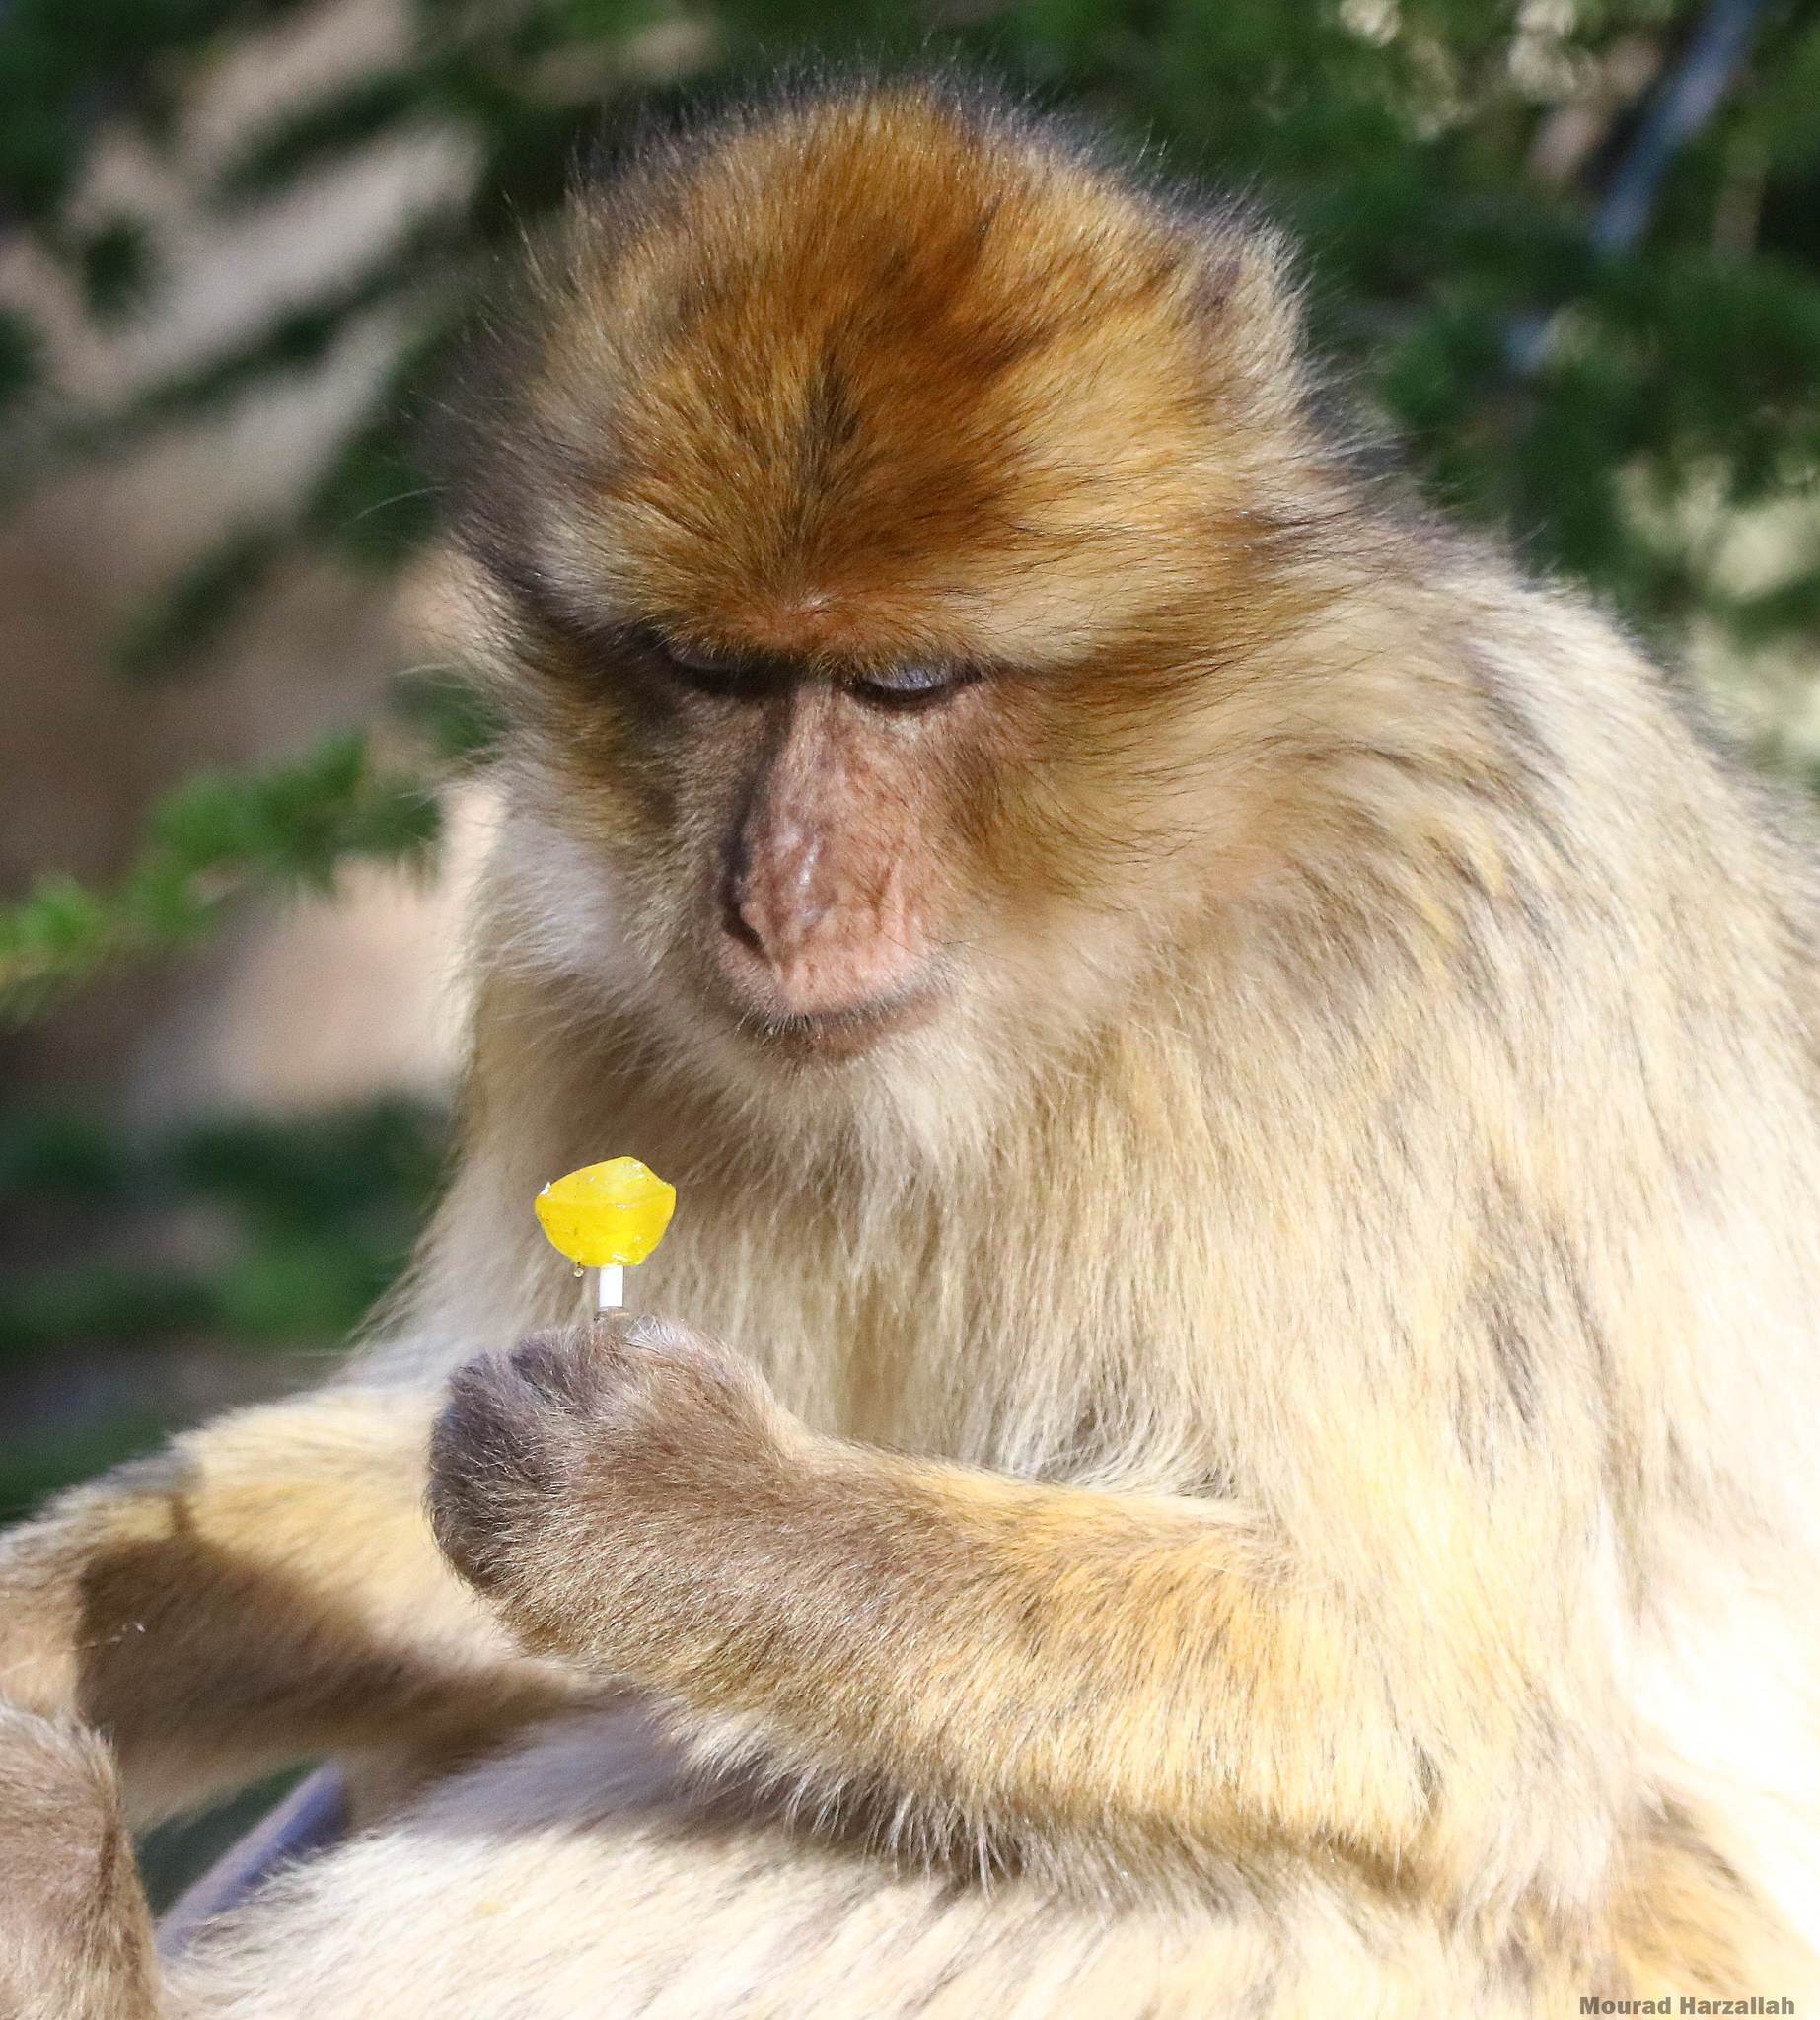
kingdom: Animalia
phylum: Chordata
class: Mammalia
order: Primates
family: Cercopithecidae
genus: Macaca
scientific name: Macaca sylvanus
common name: Barbary macaque
